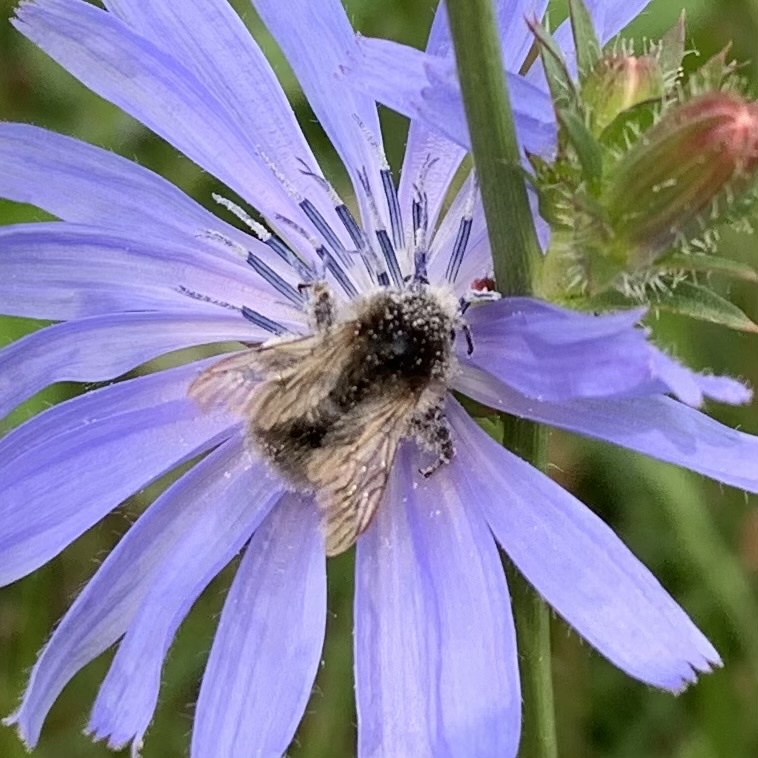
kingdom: Animalia
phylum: Arthropoda
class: Insecta
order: Hymenoptera
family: Apidae
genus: Bombus
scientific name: Bombus pascuorum
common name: Common carder bee
